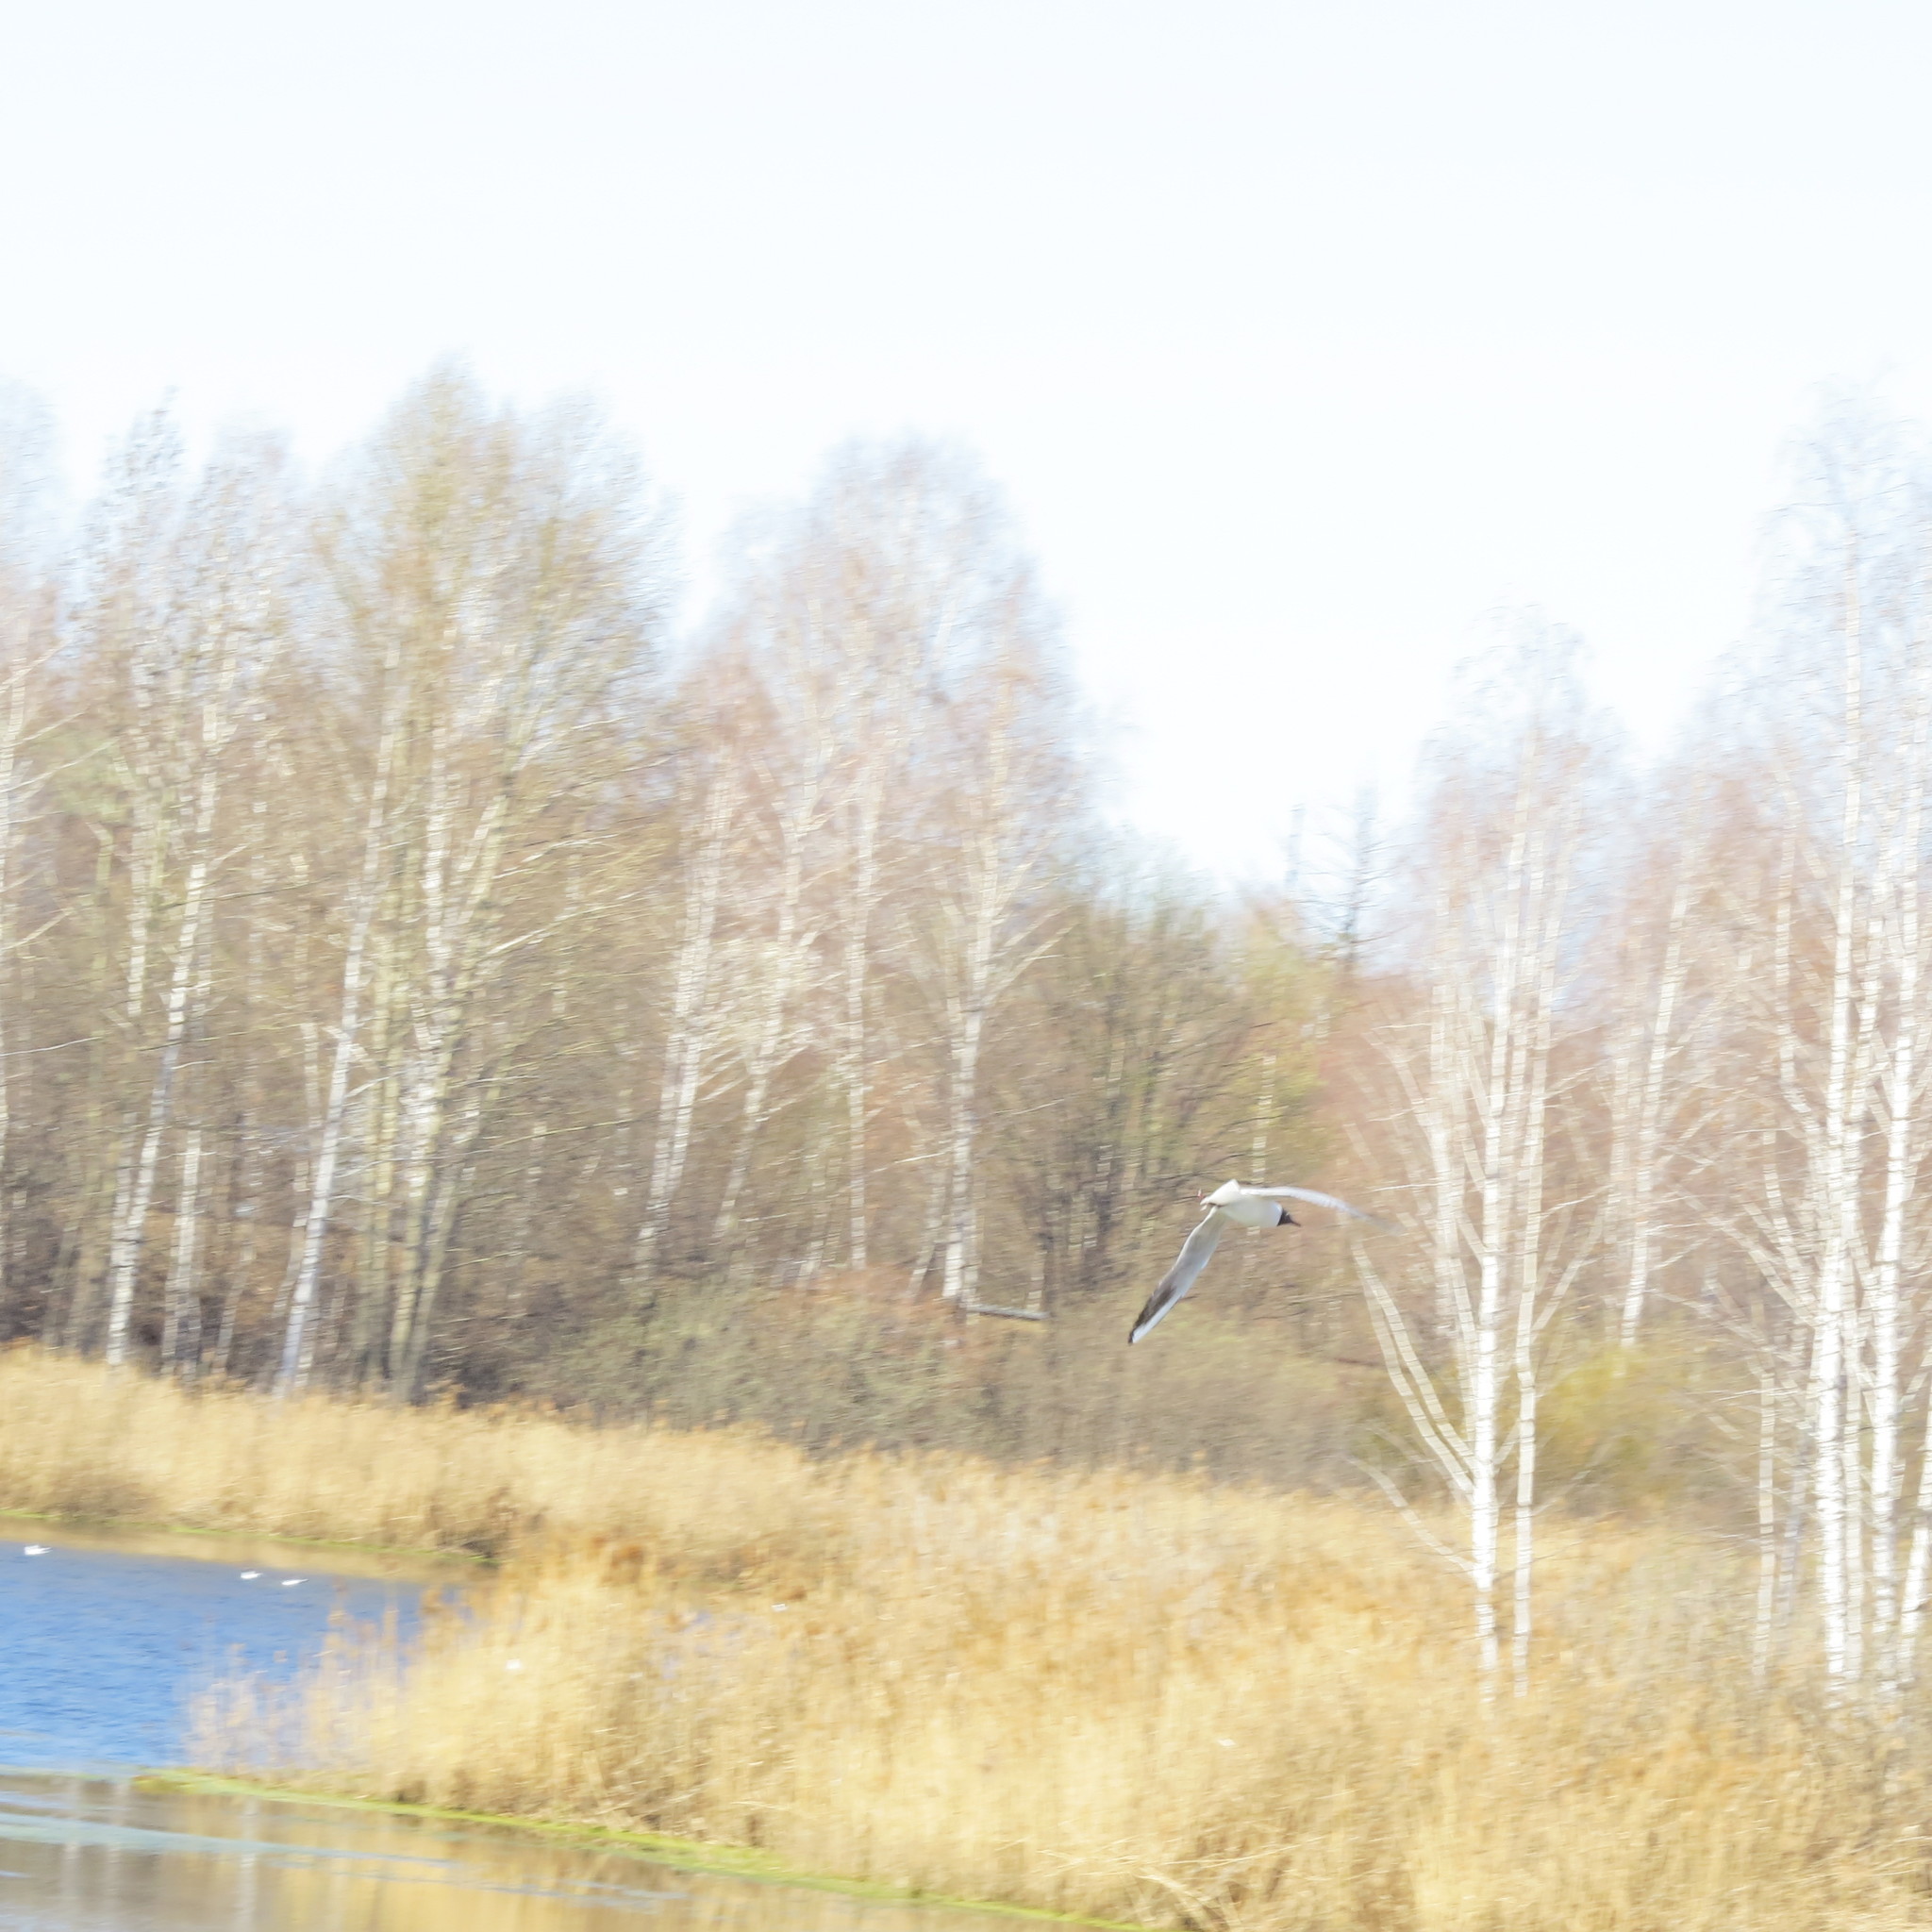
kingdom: Animalia
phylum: Chordata
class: Aves
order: Charadriiformes
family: Laridae
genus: Chroicocephalus
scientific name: Chroicocephalus ridibundus
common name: Black-headed gull
